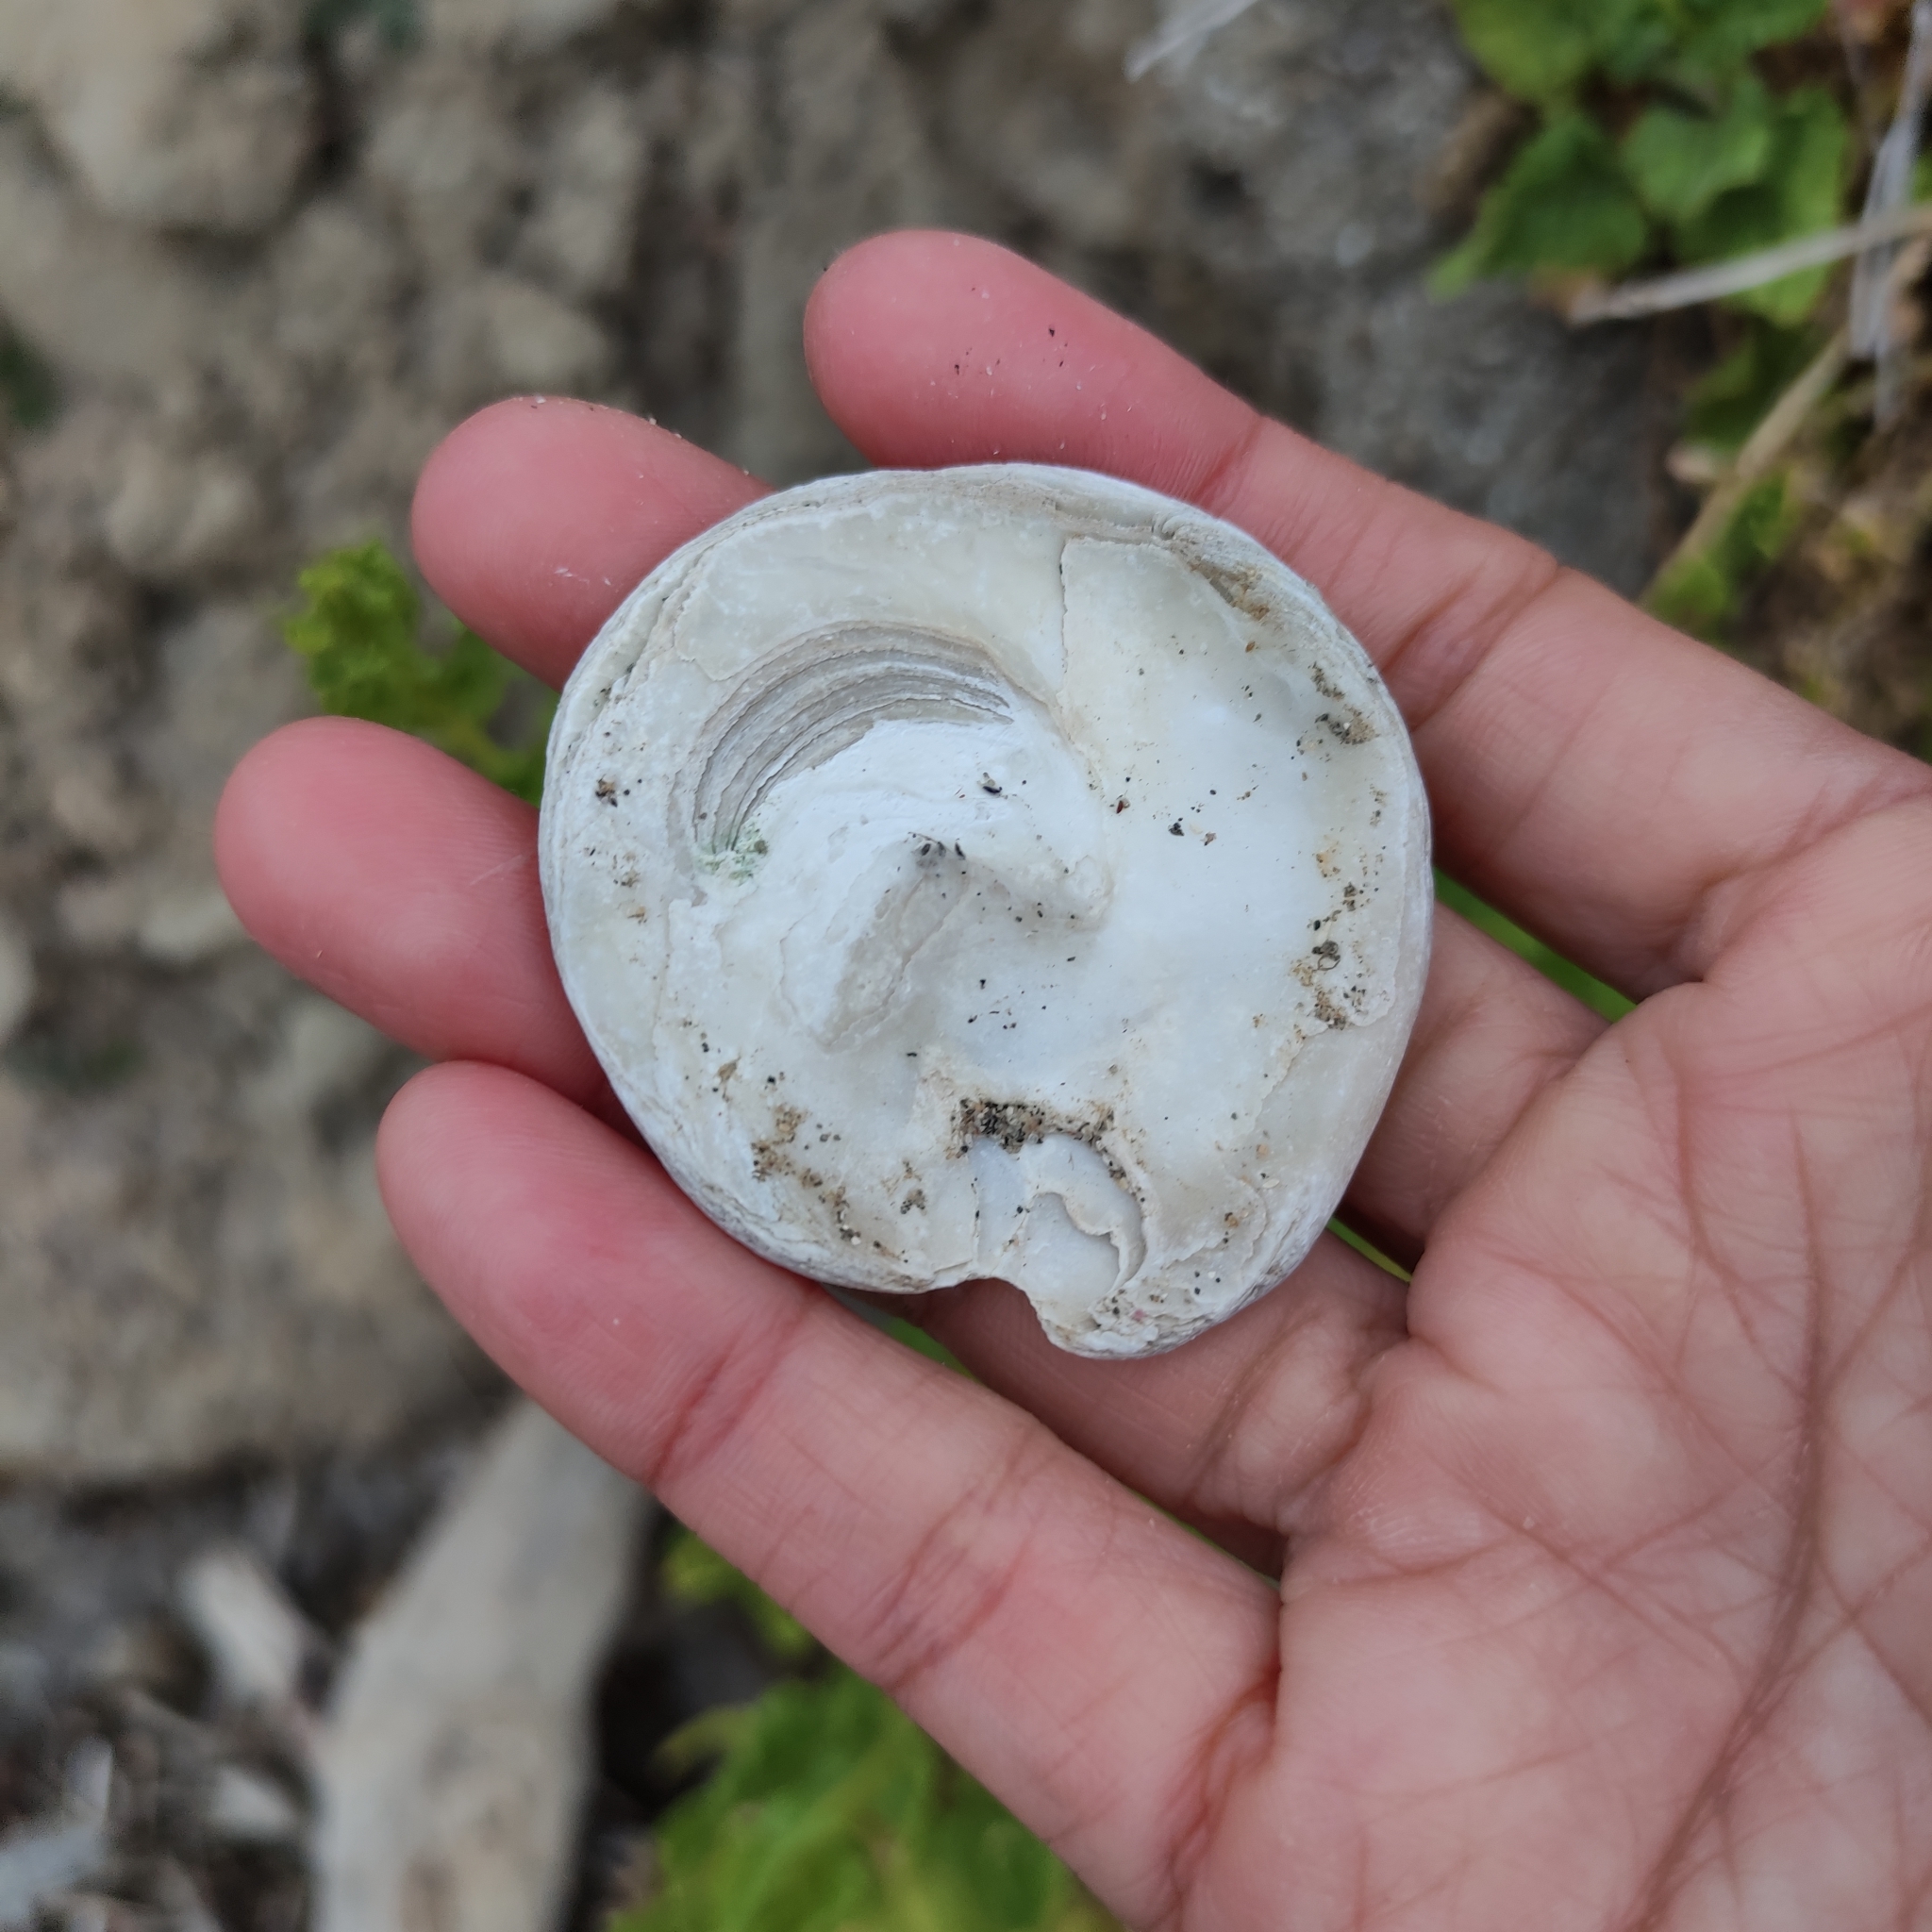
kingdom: Animalia
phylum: Mollusca
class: Bivalvia
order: Ostreida
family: Ostreidae
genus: Ostrea
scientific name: Ostrea chilensis
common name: Chilean oyster
